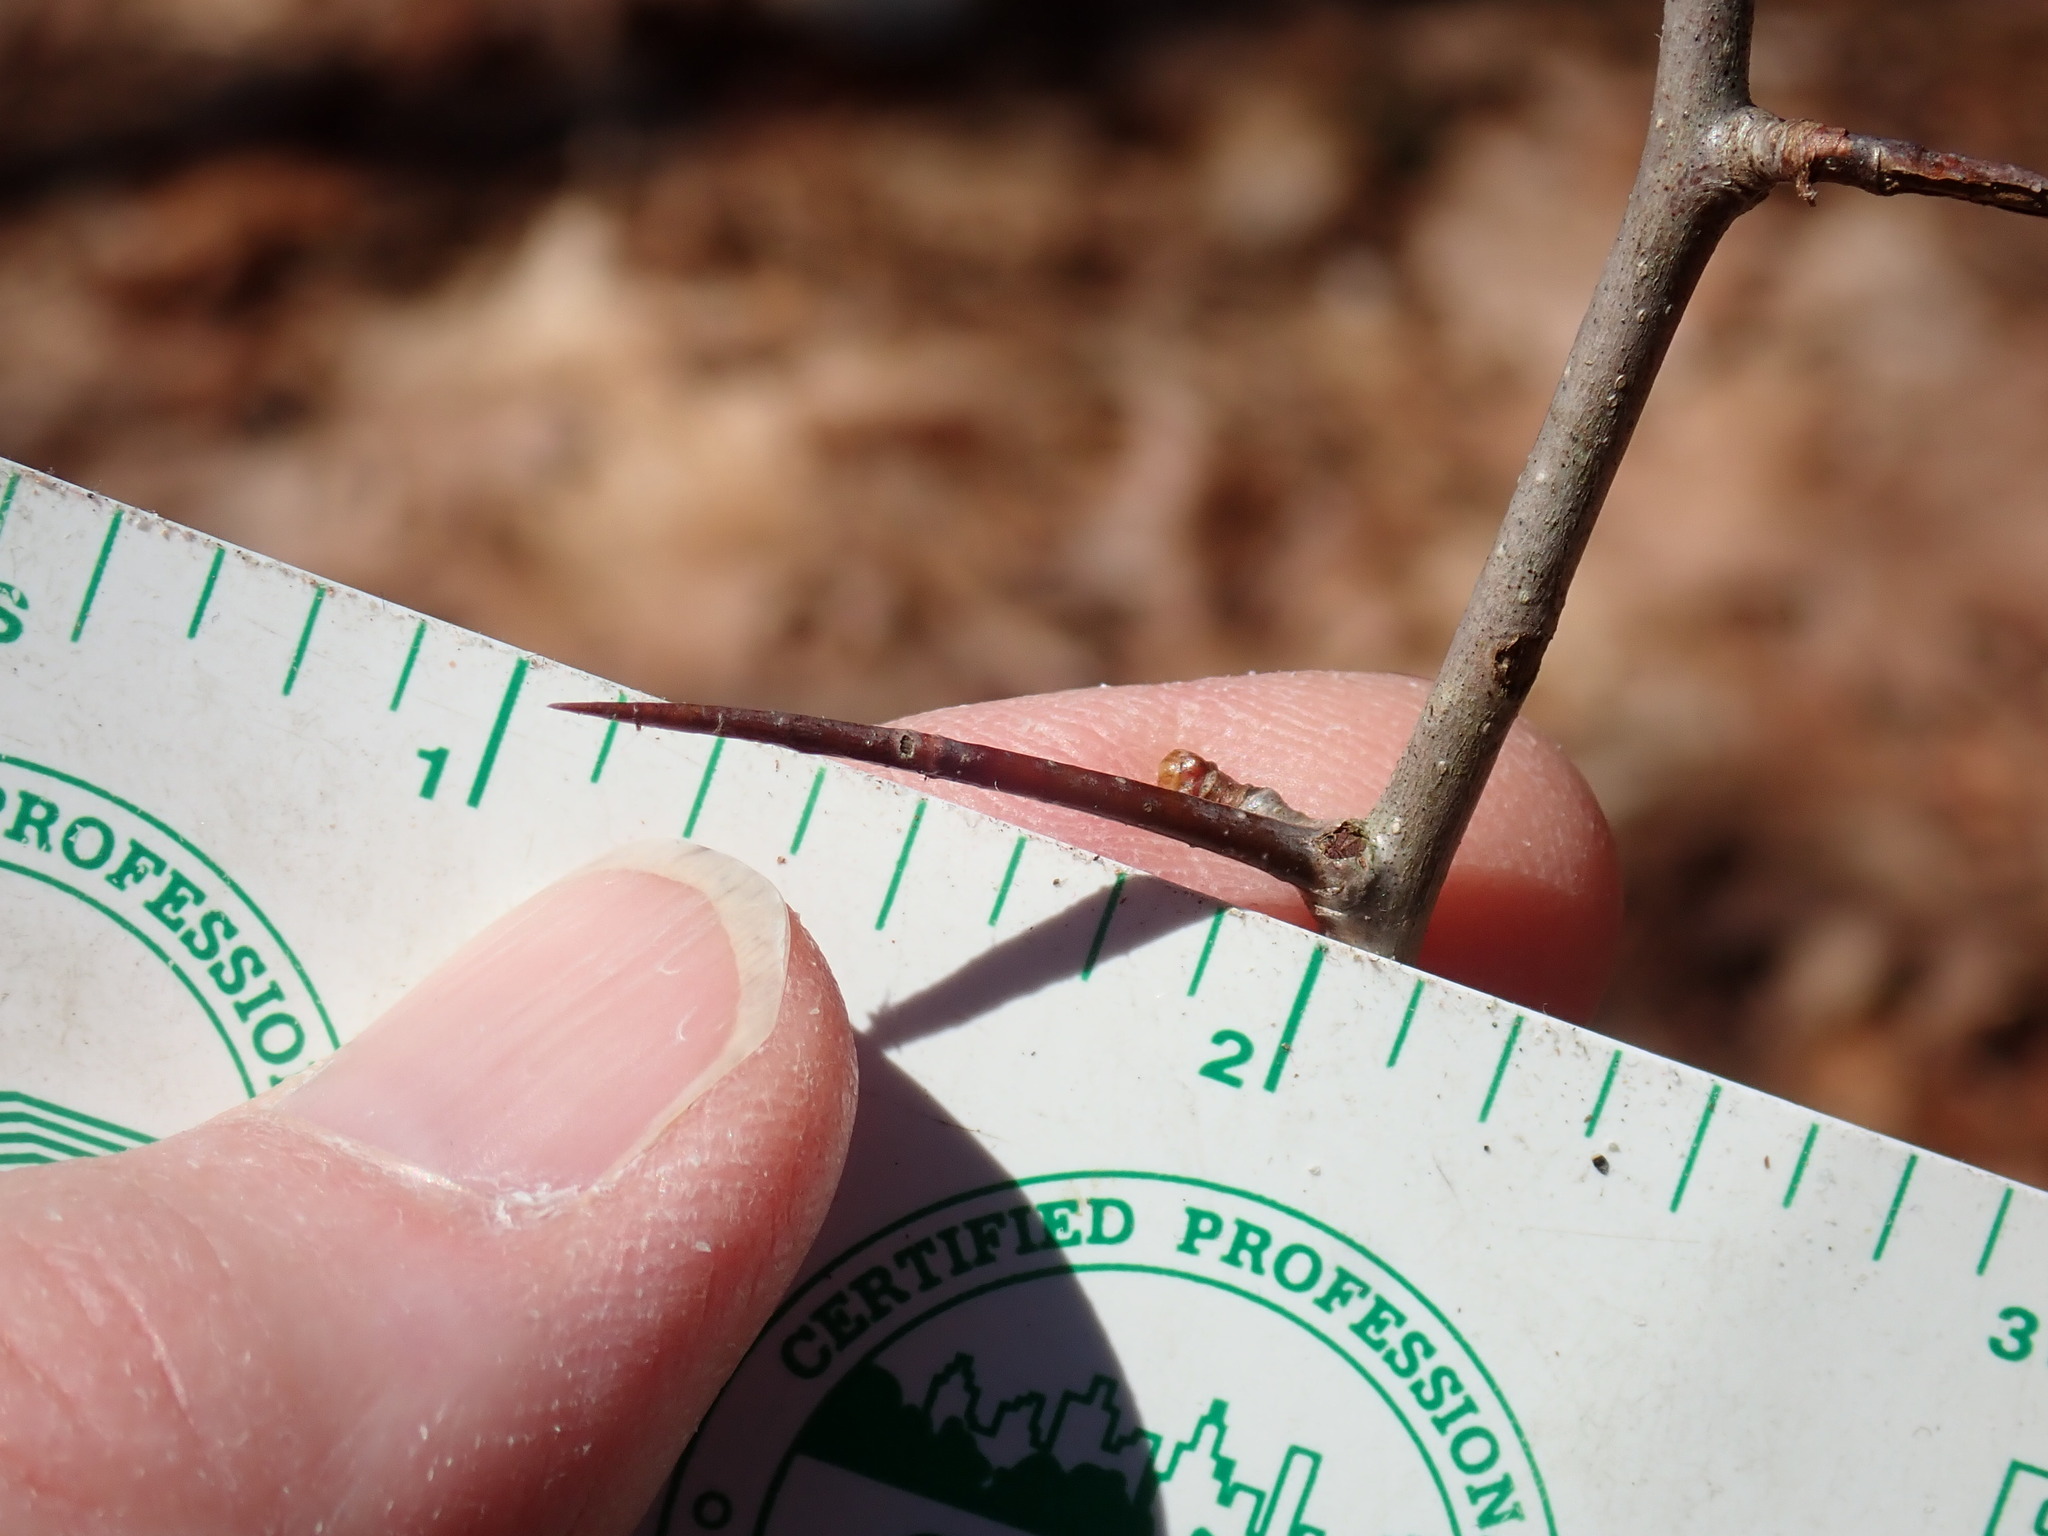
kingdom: Plantae
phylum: Tracheophyta
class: Magnoliopsida
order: Rosales
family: Rosaceae
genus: Crataegus
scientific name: Crataegus
